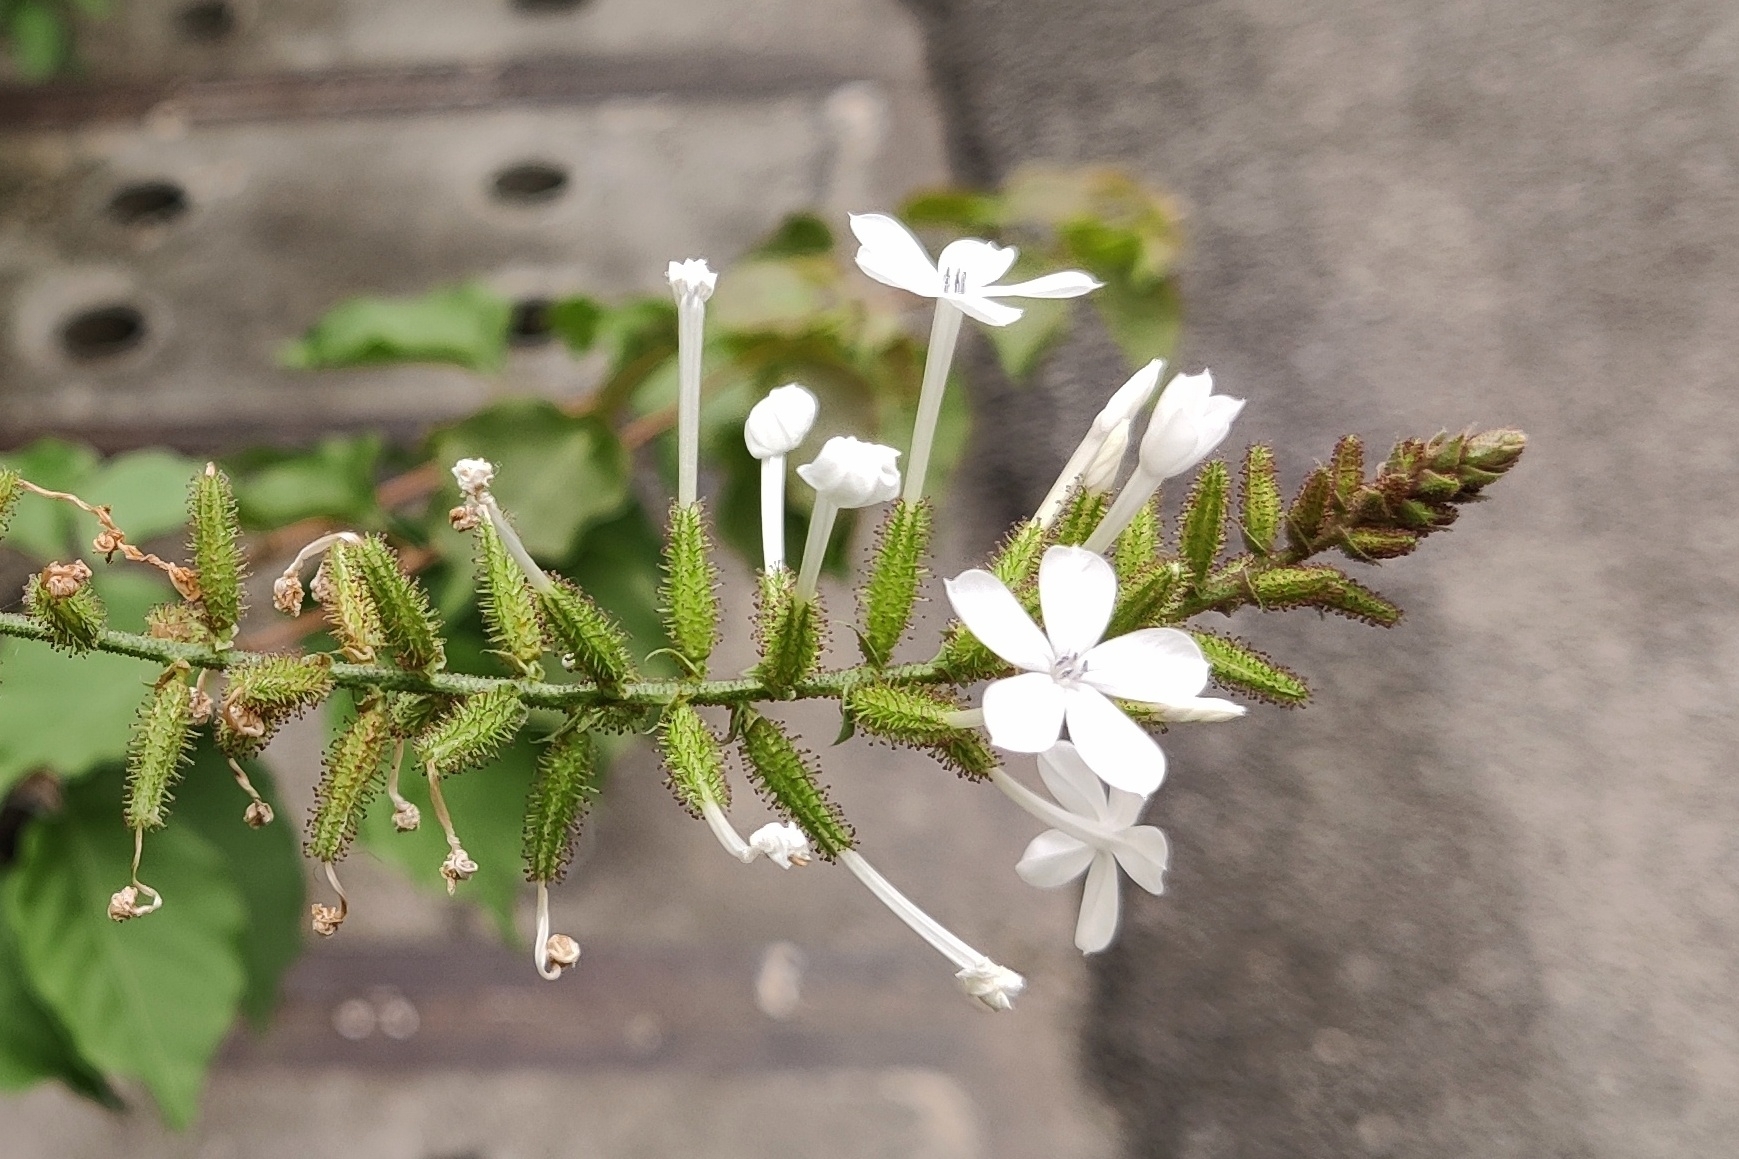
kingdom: Plantae
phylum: Tracheophyta
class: Magnoliopsida
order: Caryophyllales
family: Plumbaginaceae
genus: Plumbago
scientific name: Plumbago zeylanica
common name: Doctorbush
